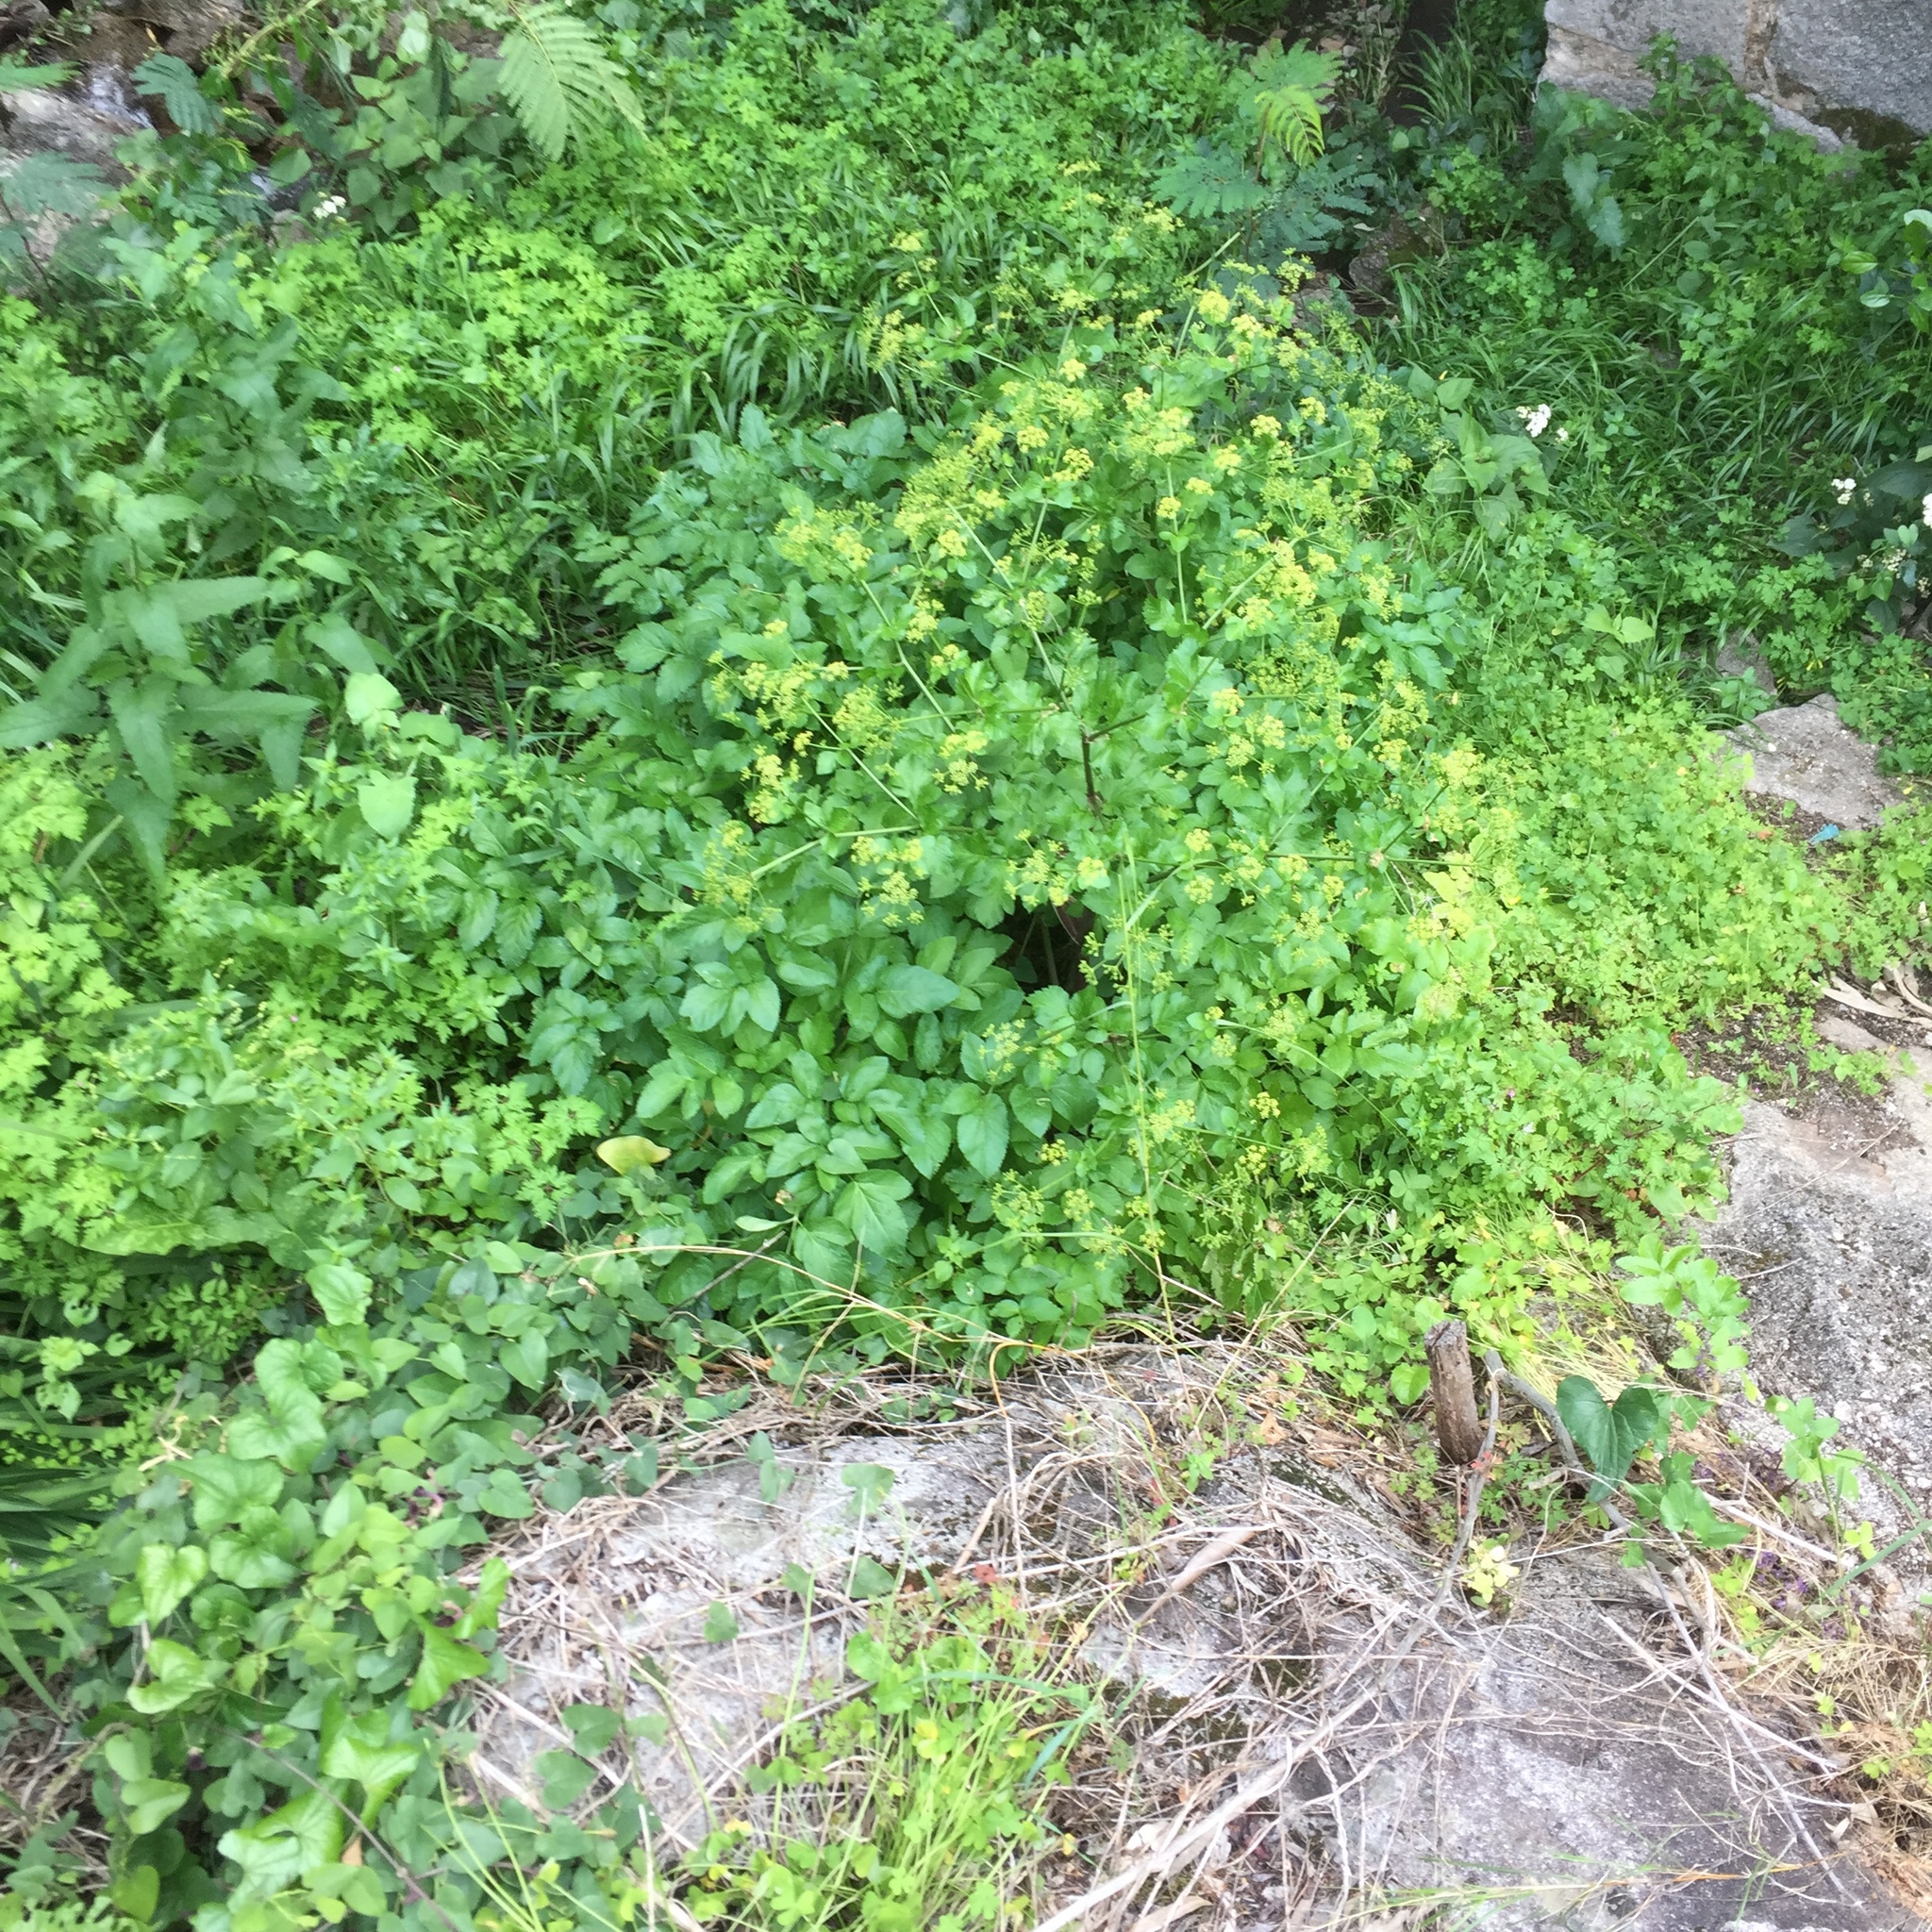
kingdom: Plantae
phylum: Tracheophyta
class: Magnoliopsida
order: Apiales
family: Apiaceae
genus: Smyrnium
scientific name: Smyrnium olusatrum
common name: Alexanders
